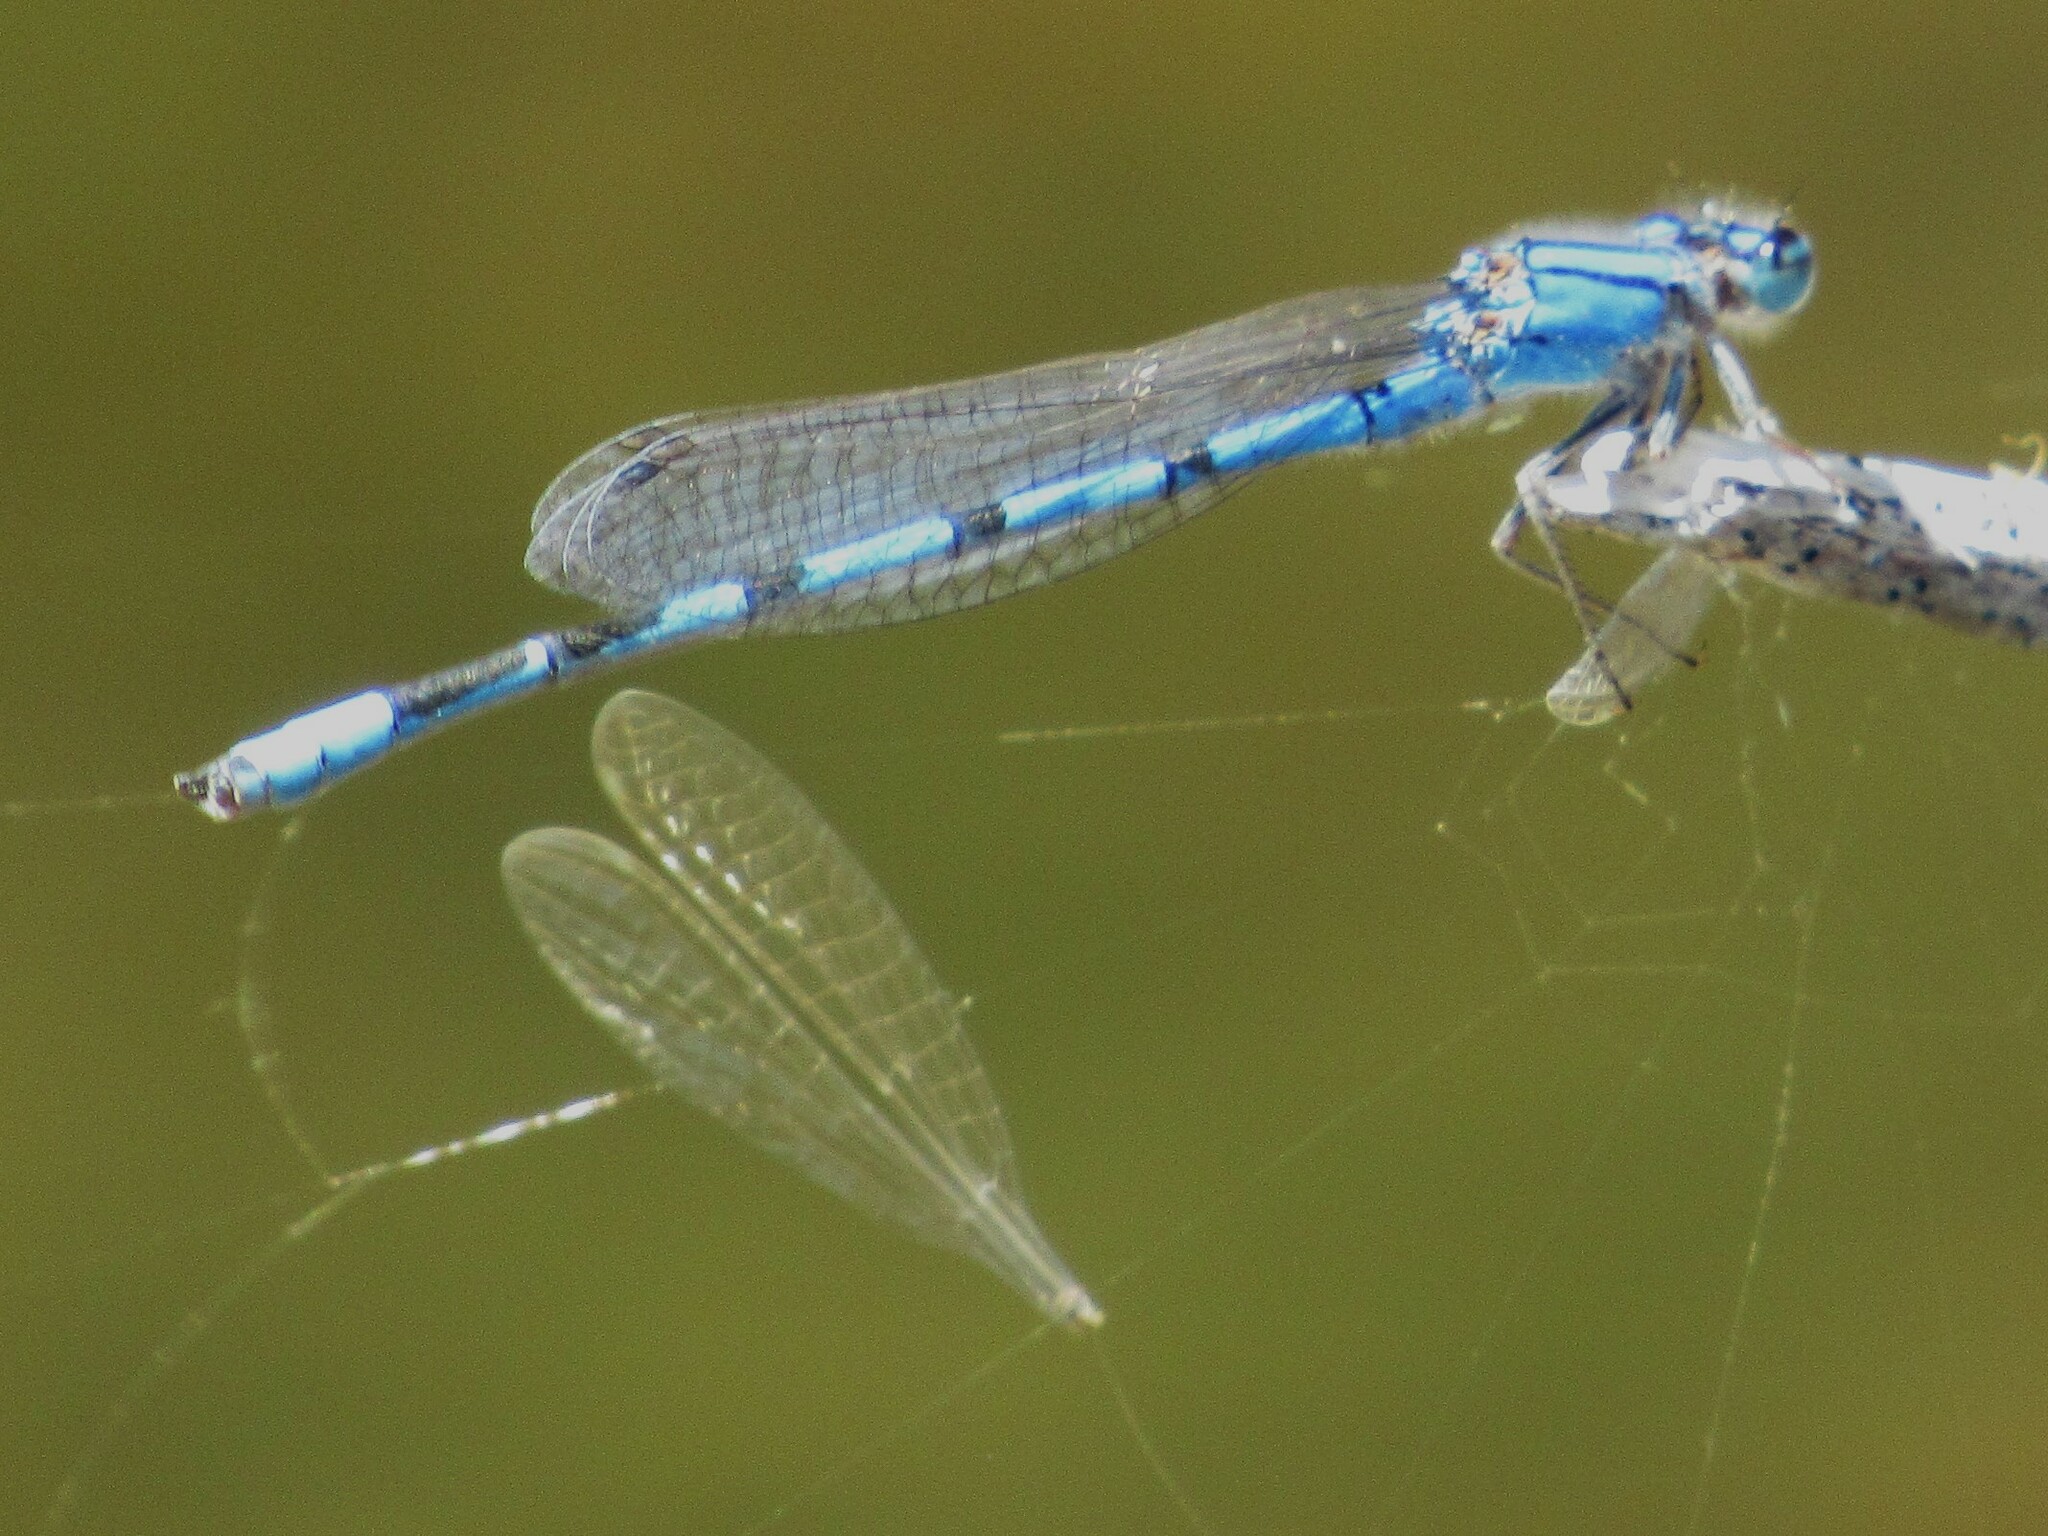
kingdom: Animalia
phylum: Arthropoda
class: Insecta
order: Odonata
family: Coenagrionidae
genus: Enallagma
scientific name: Enallagma civile
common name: Damselfly
